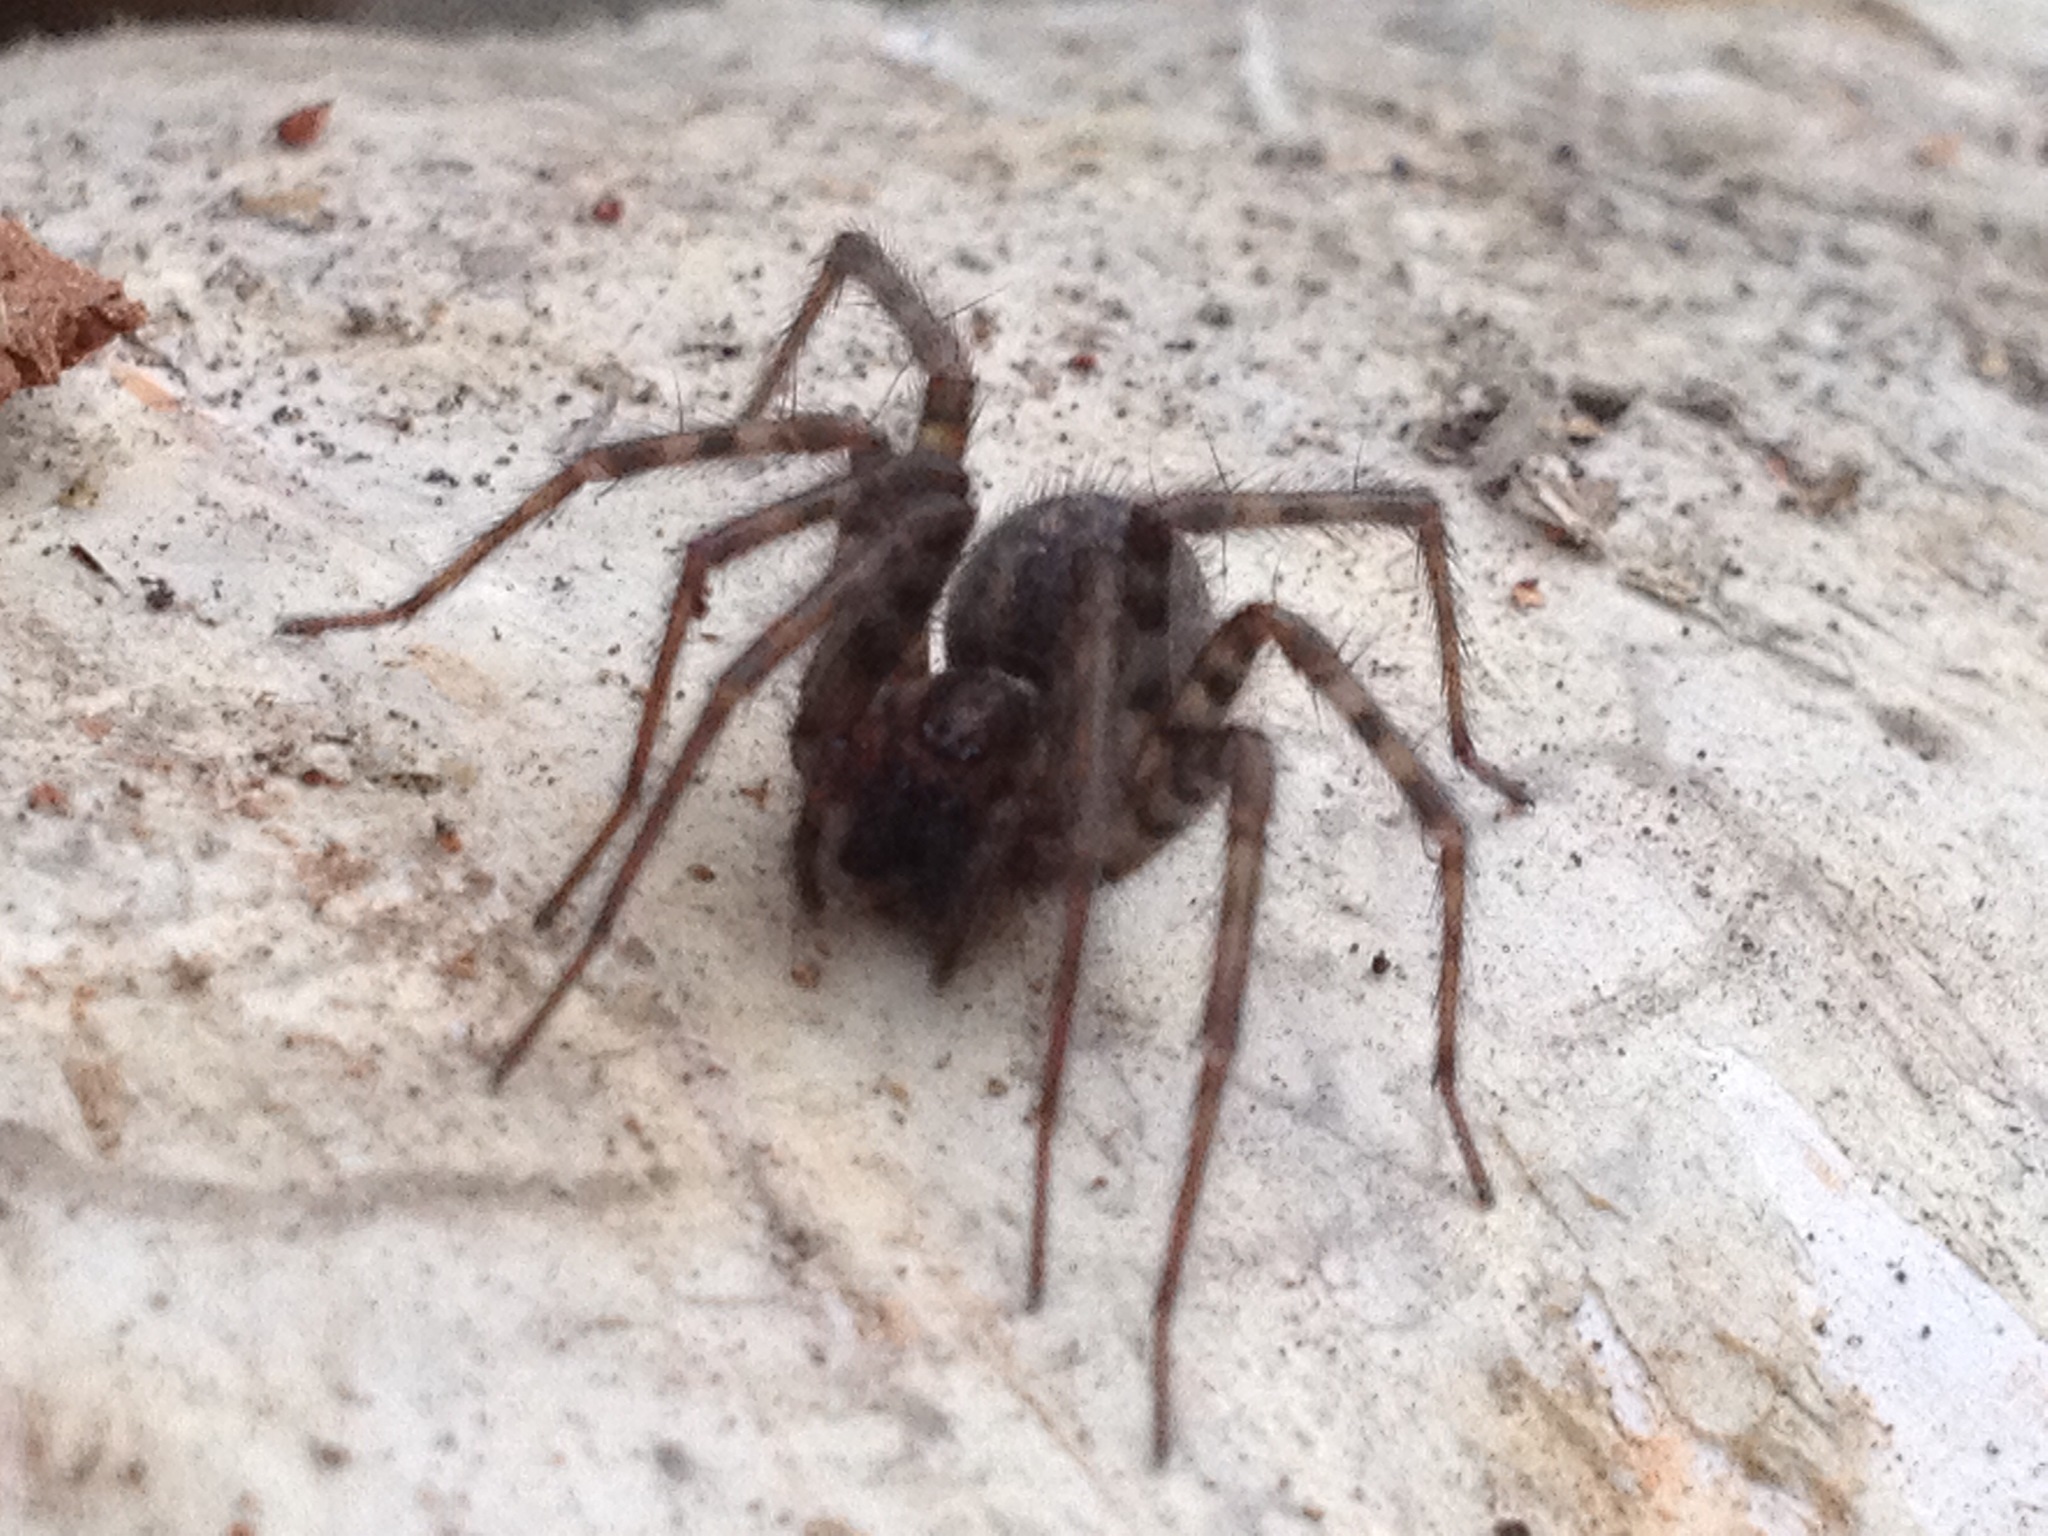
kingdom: Animalia
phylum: Arthropoda
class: Arachnida
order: Araneae
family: Agelenidae
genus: Tegenaria
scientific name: Tegenaria domestica
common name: Barn funnel weaver
